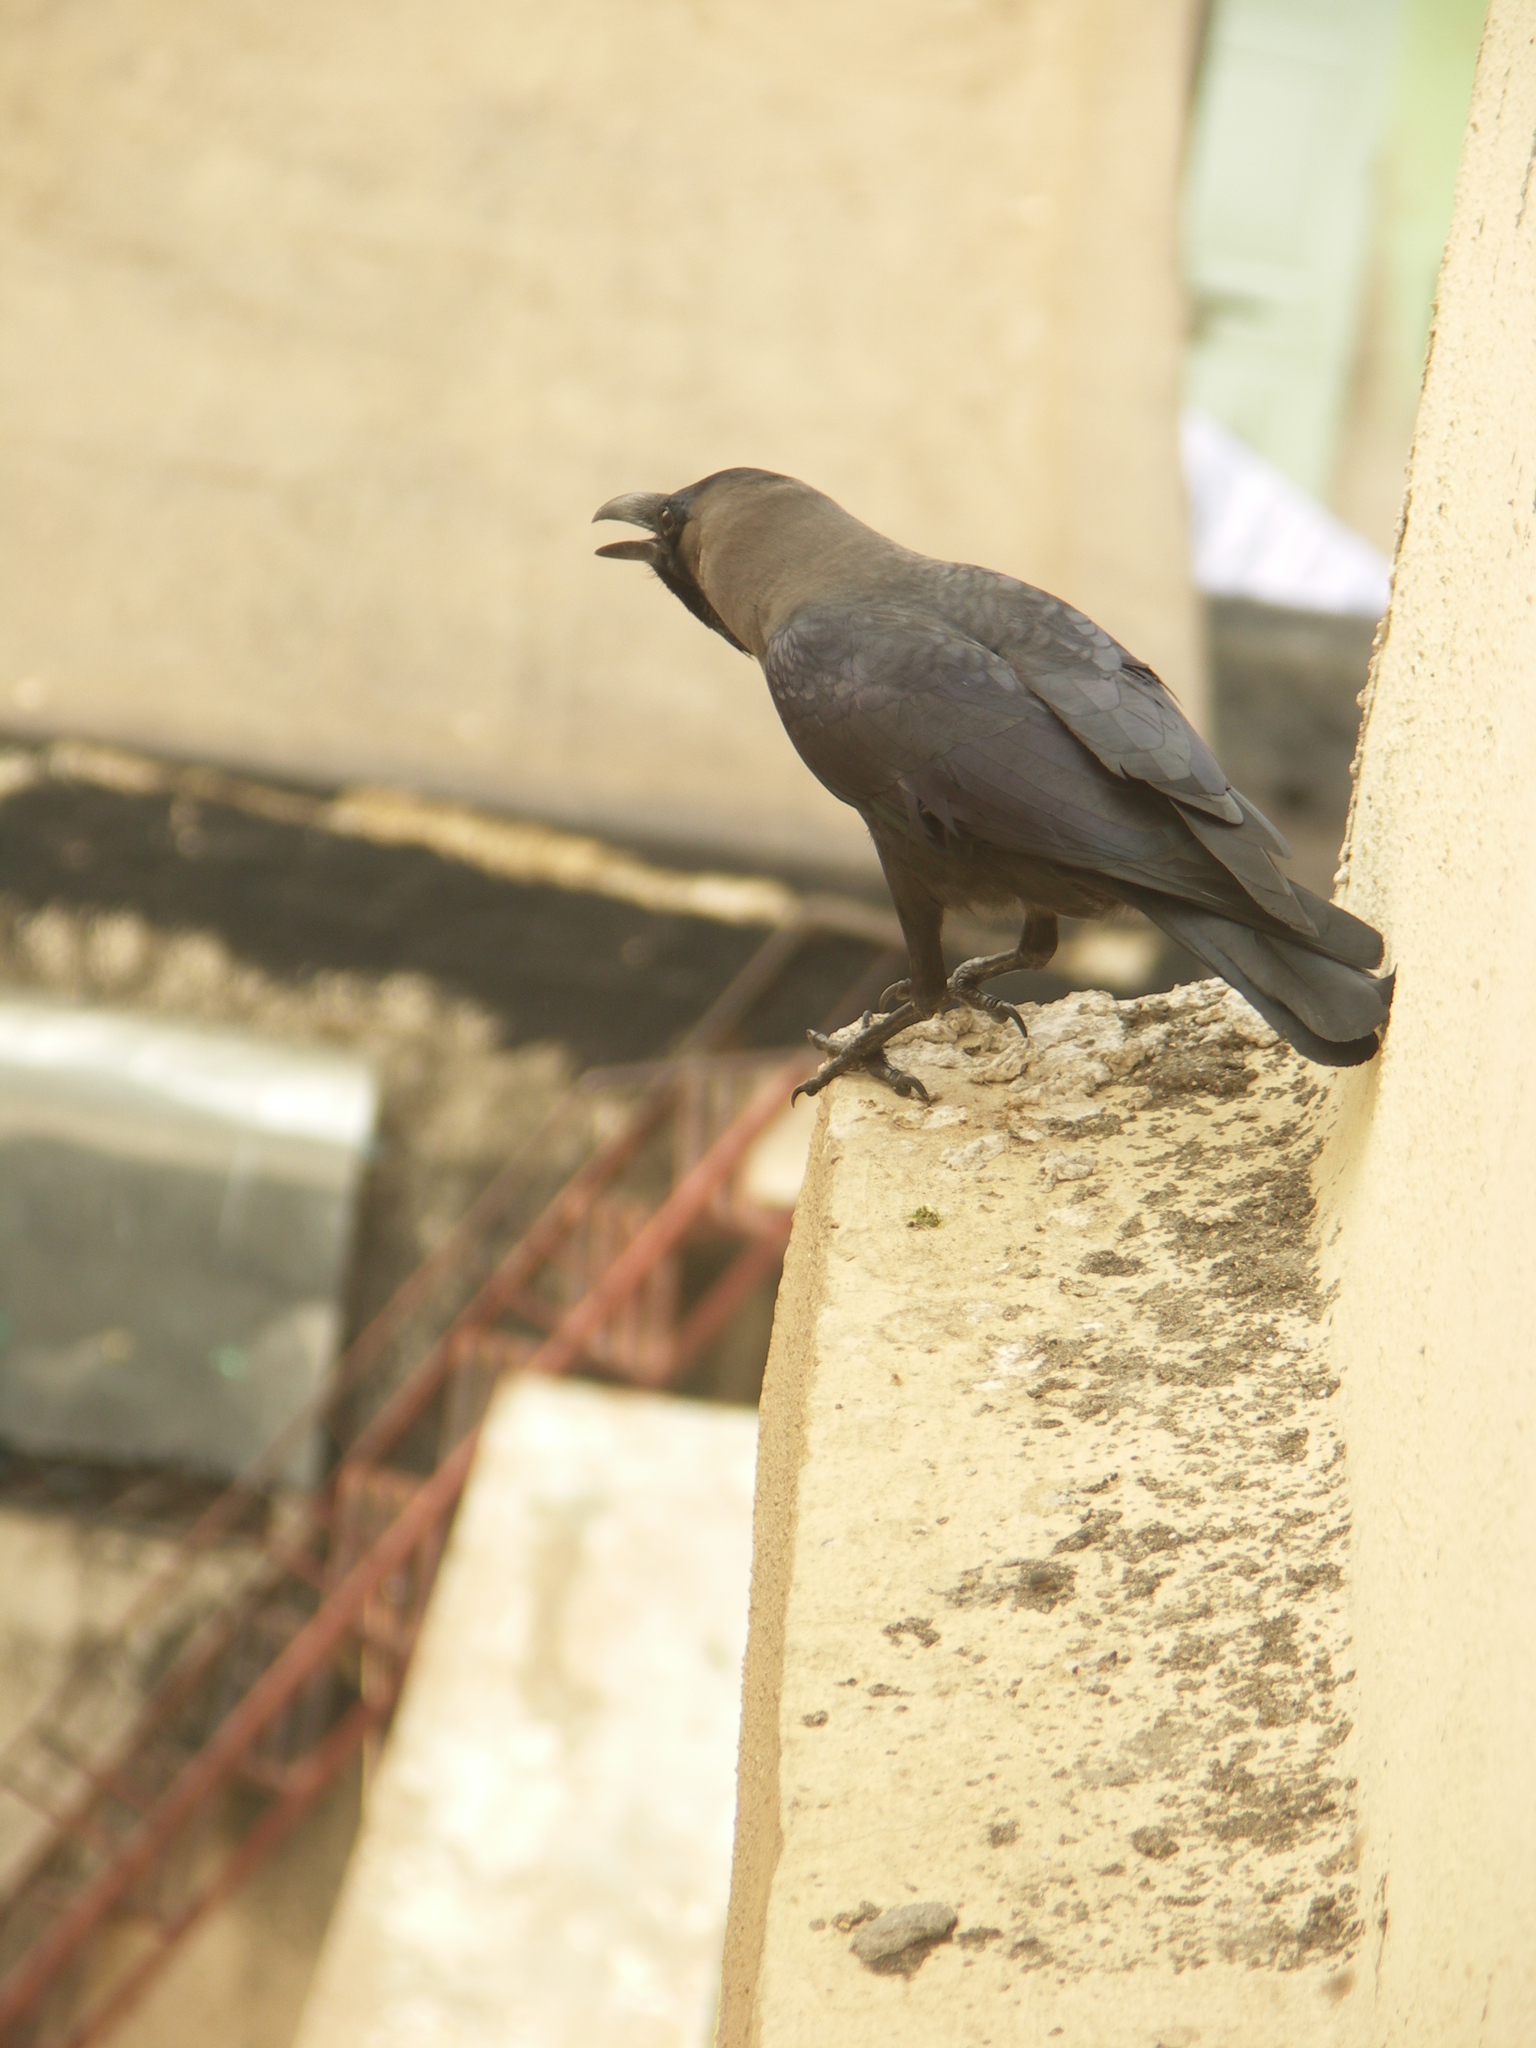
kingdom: Animalia
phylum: Chordata
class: Aves
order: Passeriformes
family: Corvidae
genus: Corvus
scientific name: Corvus splendens
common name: House crow
